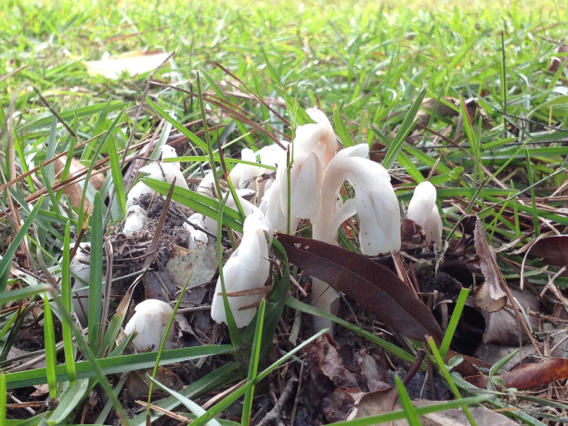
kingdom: Plantae
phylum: Tracheophyta
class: Magnoliopsida
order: Ericales
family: Ericaceae
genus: Monotropa
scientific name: Monotropa uniflora
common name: Convulsion root
